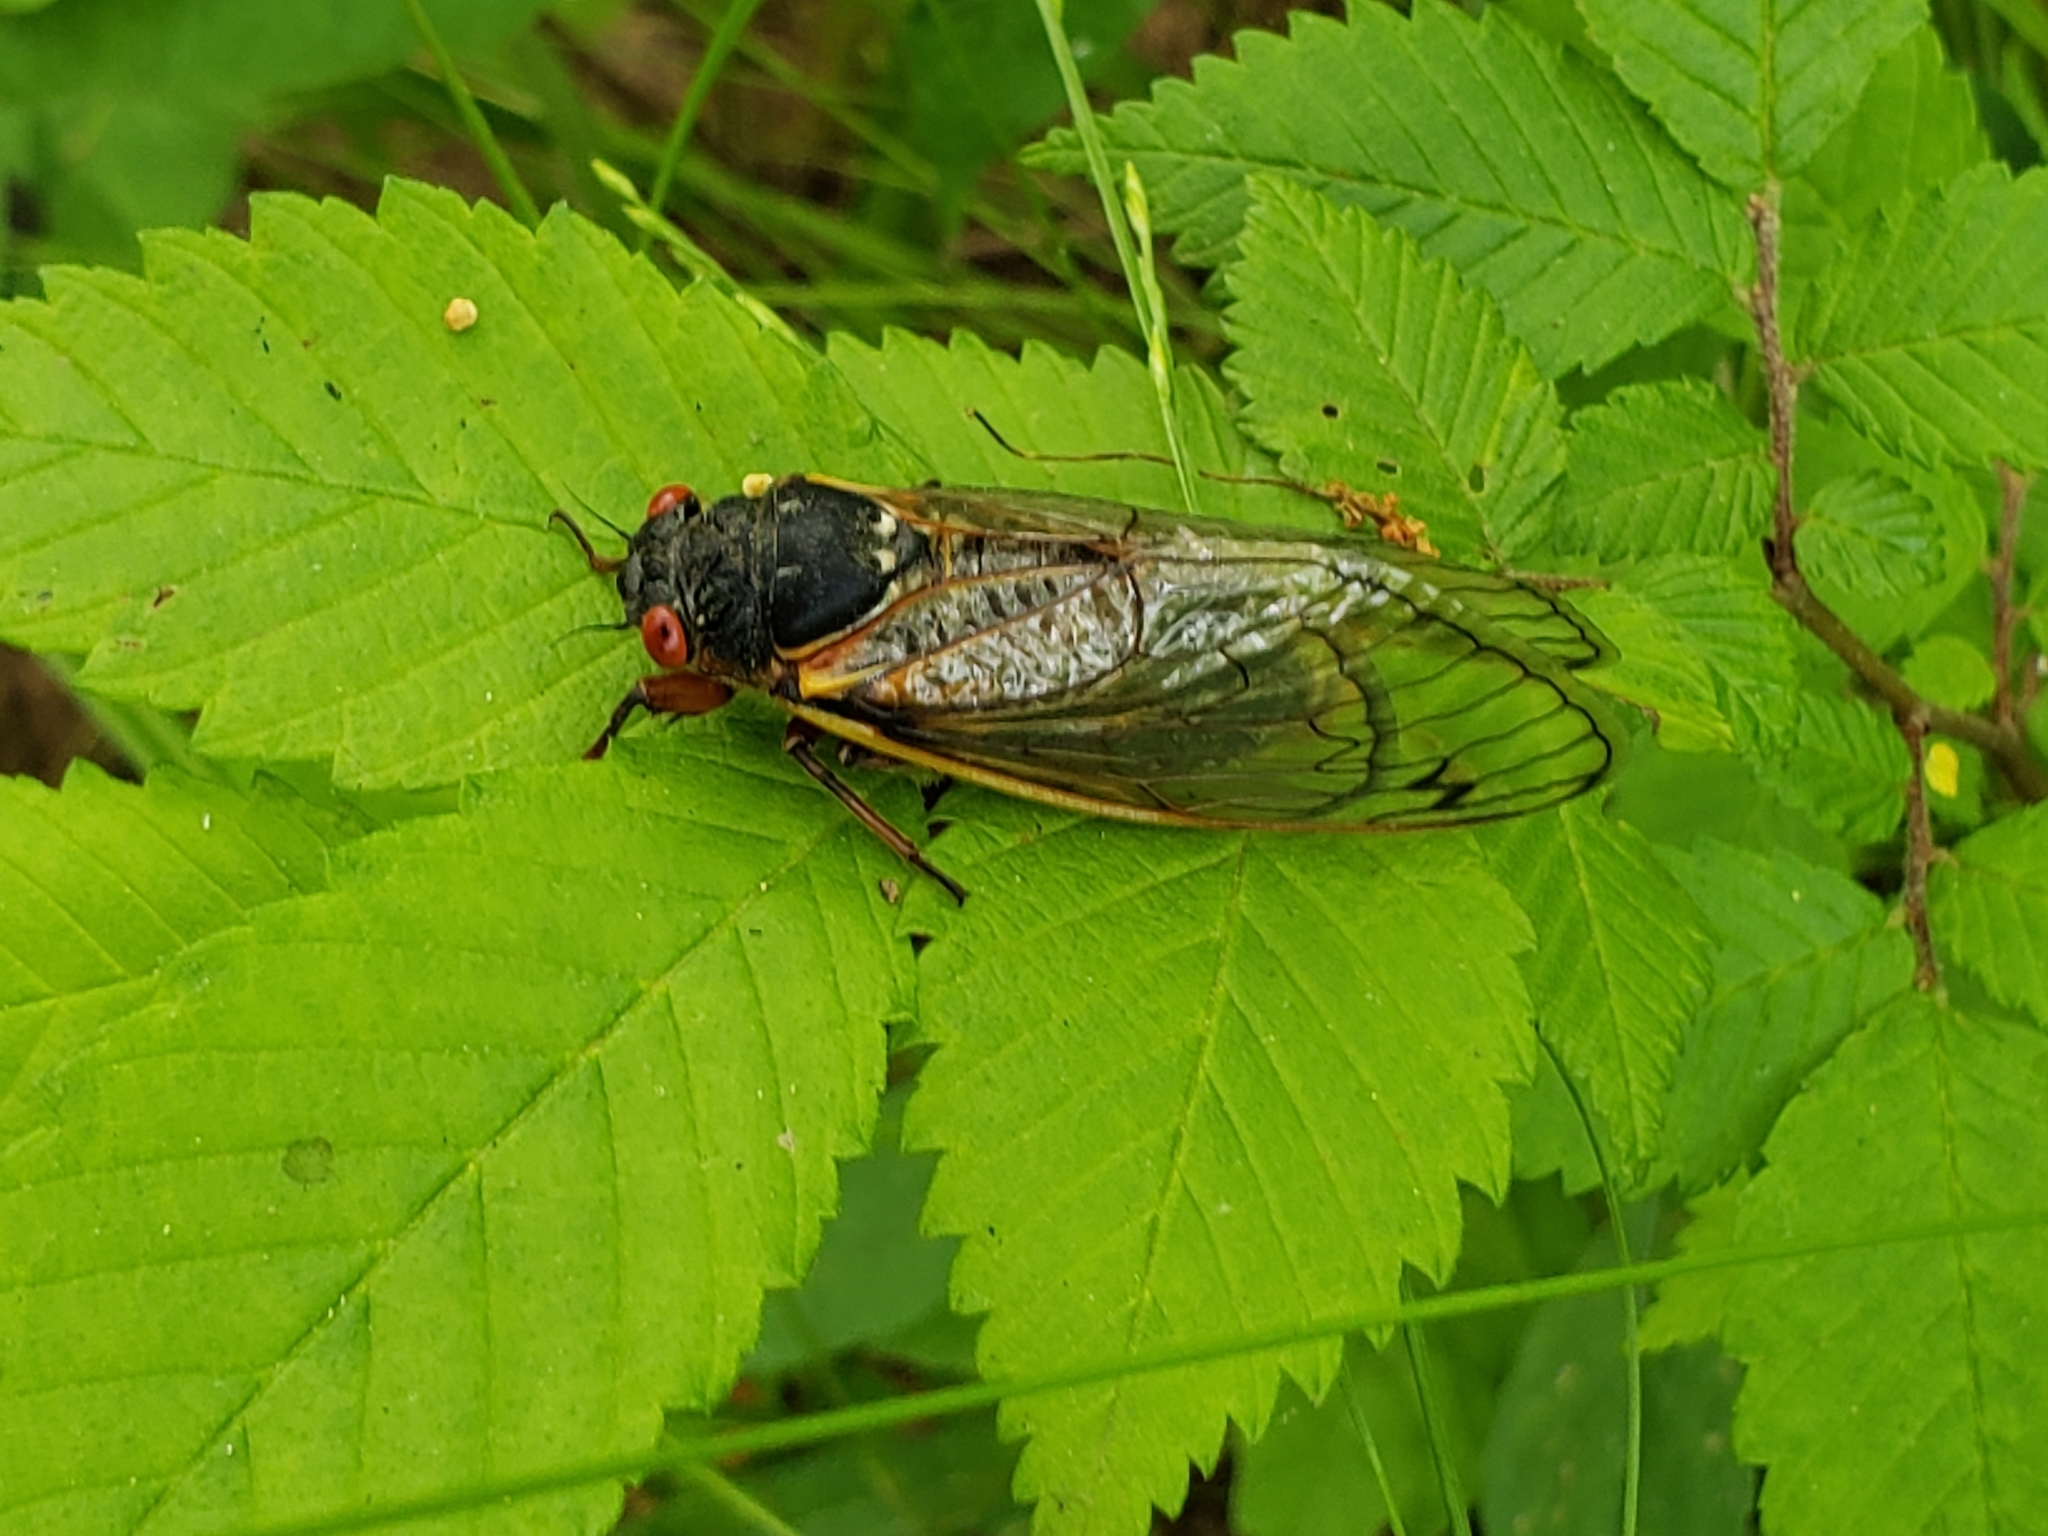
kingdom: Animalia
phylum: Arthropoda
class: Insecta
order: Hemiptera
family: Cicadidae
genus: Magicicada
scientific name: Magicicada septendecim
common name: Periodical cicada
